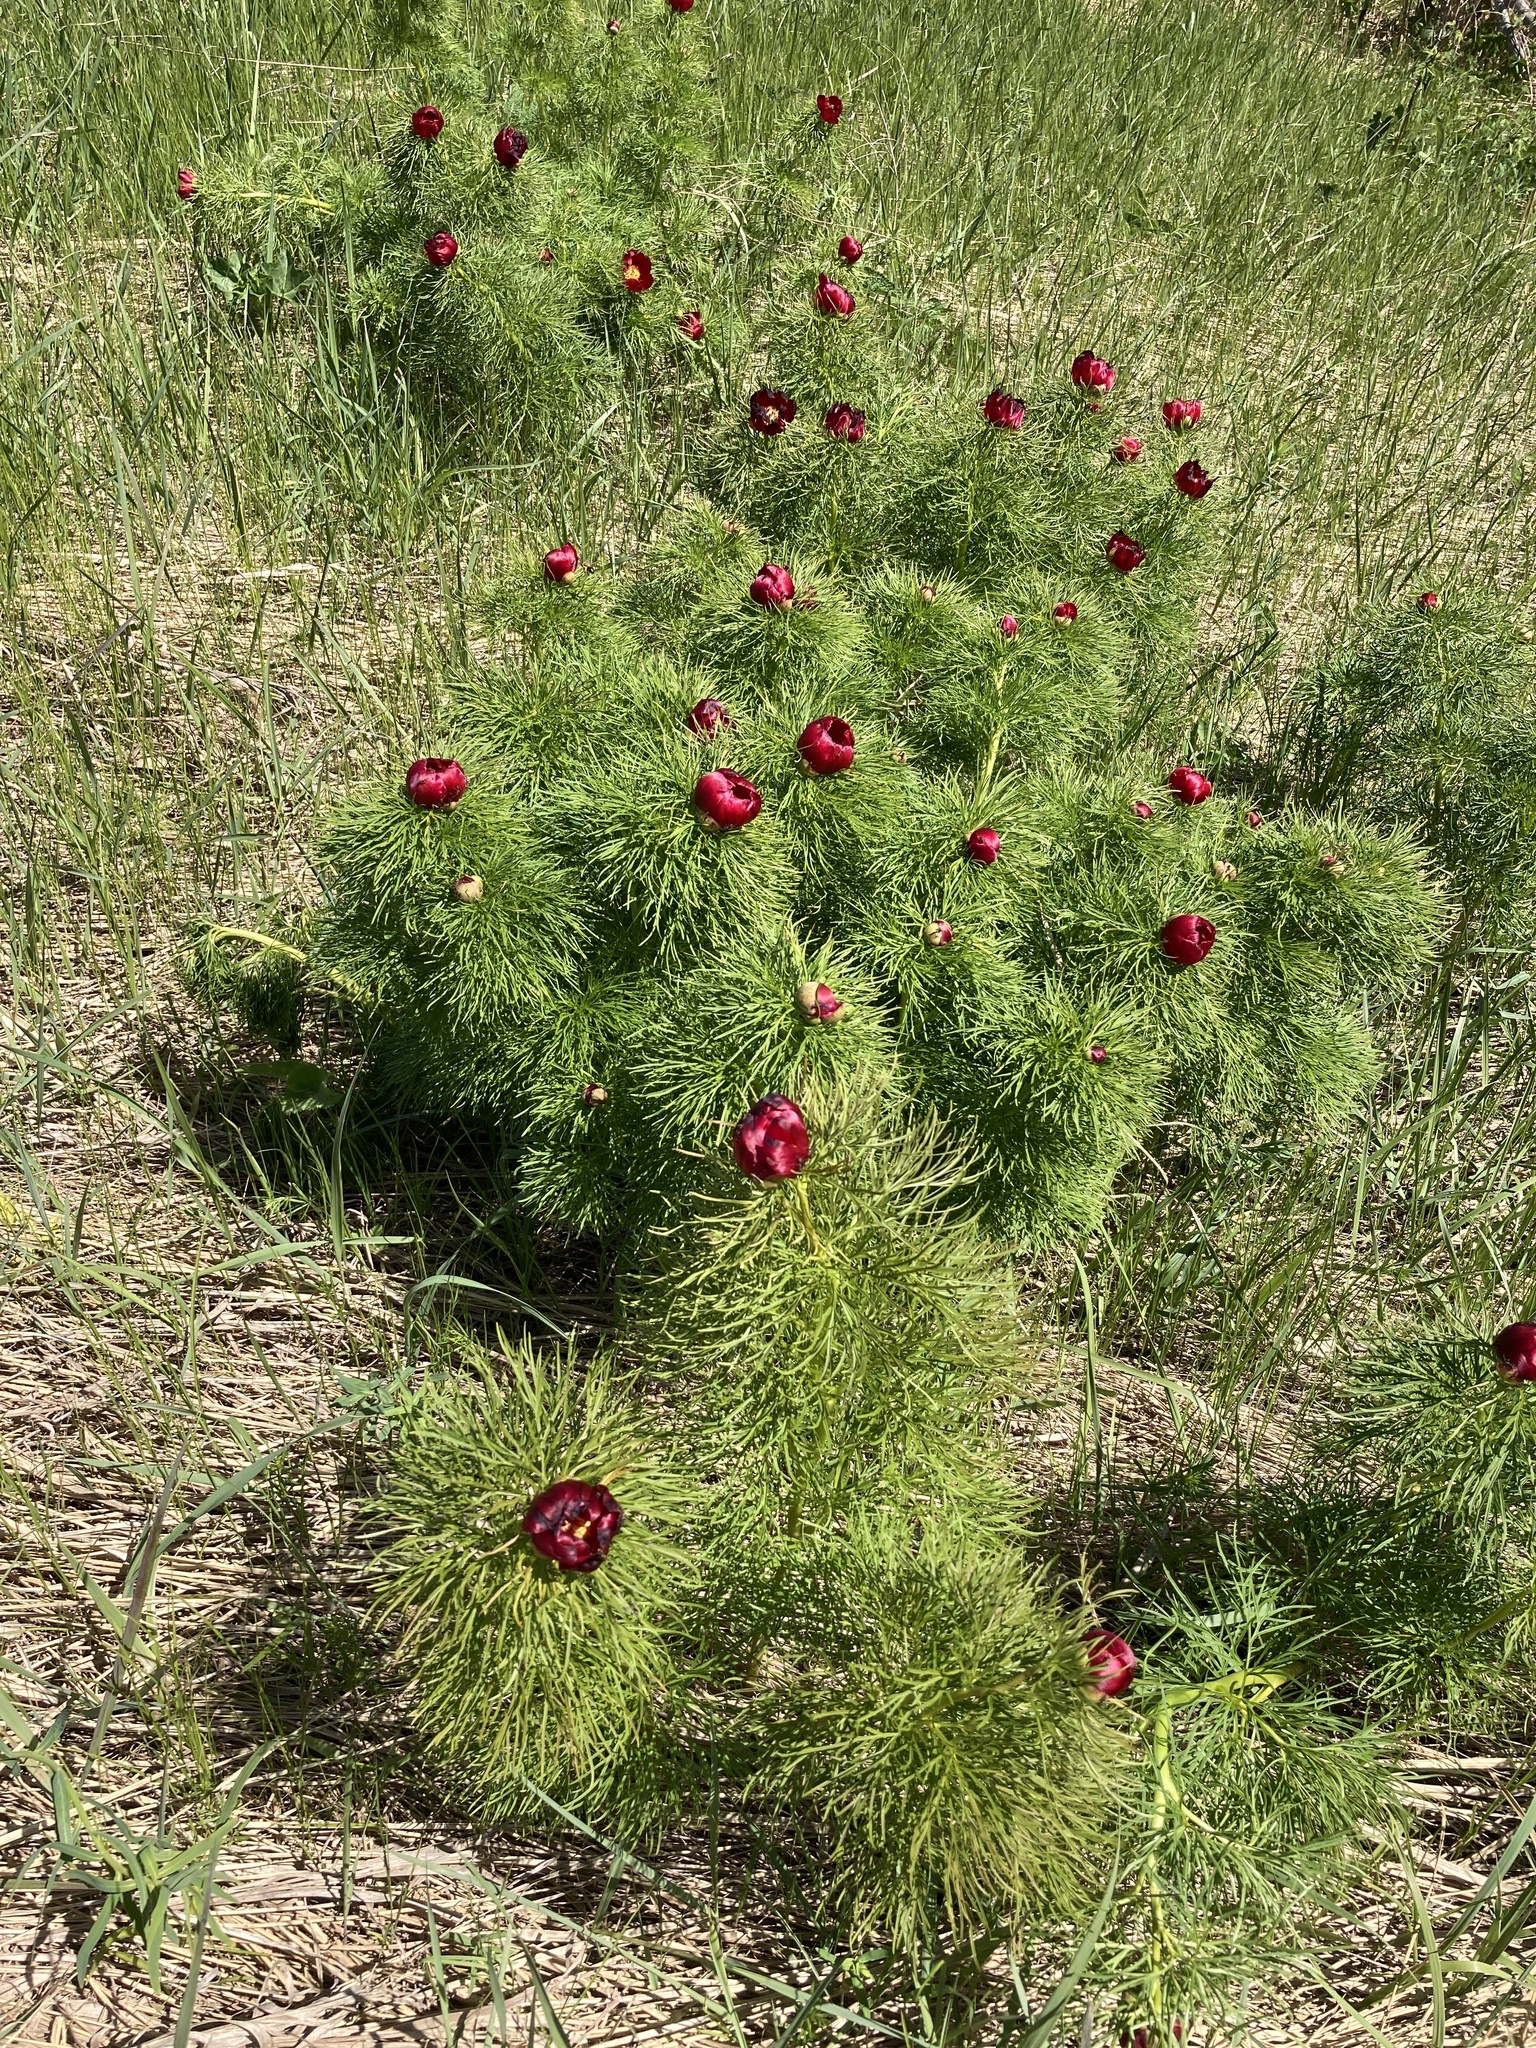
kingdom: Plantae
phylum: Tracheophyta
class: Magnoliopsida
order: Saxifragales
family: Paeoniaceae
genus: Paeonia
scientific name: Paeonia tenuifolia
